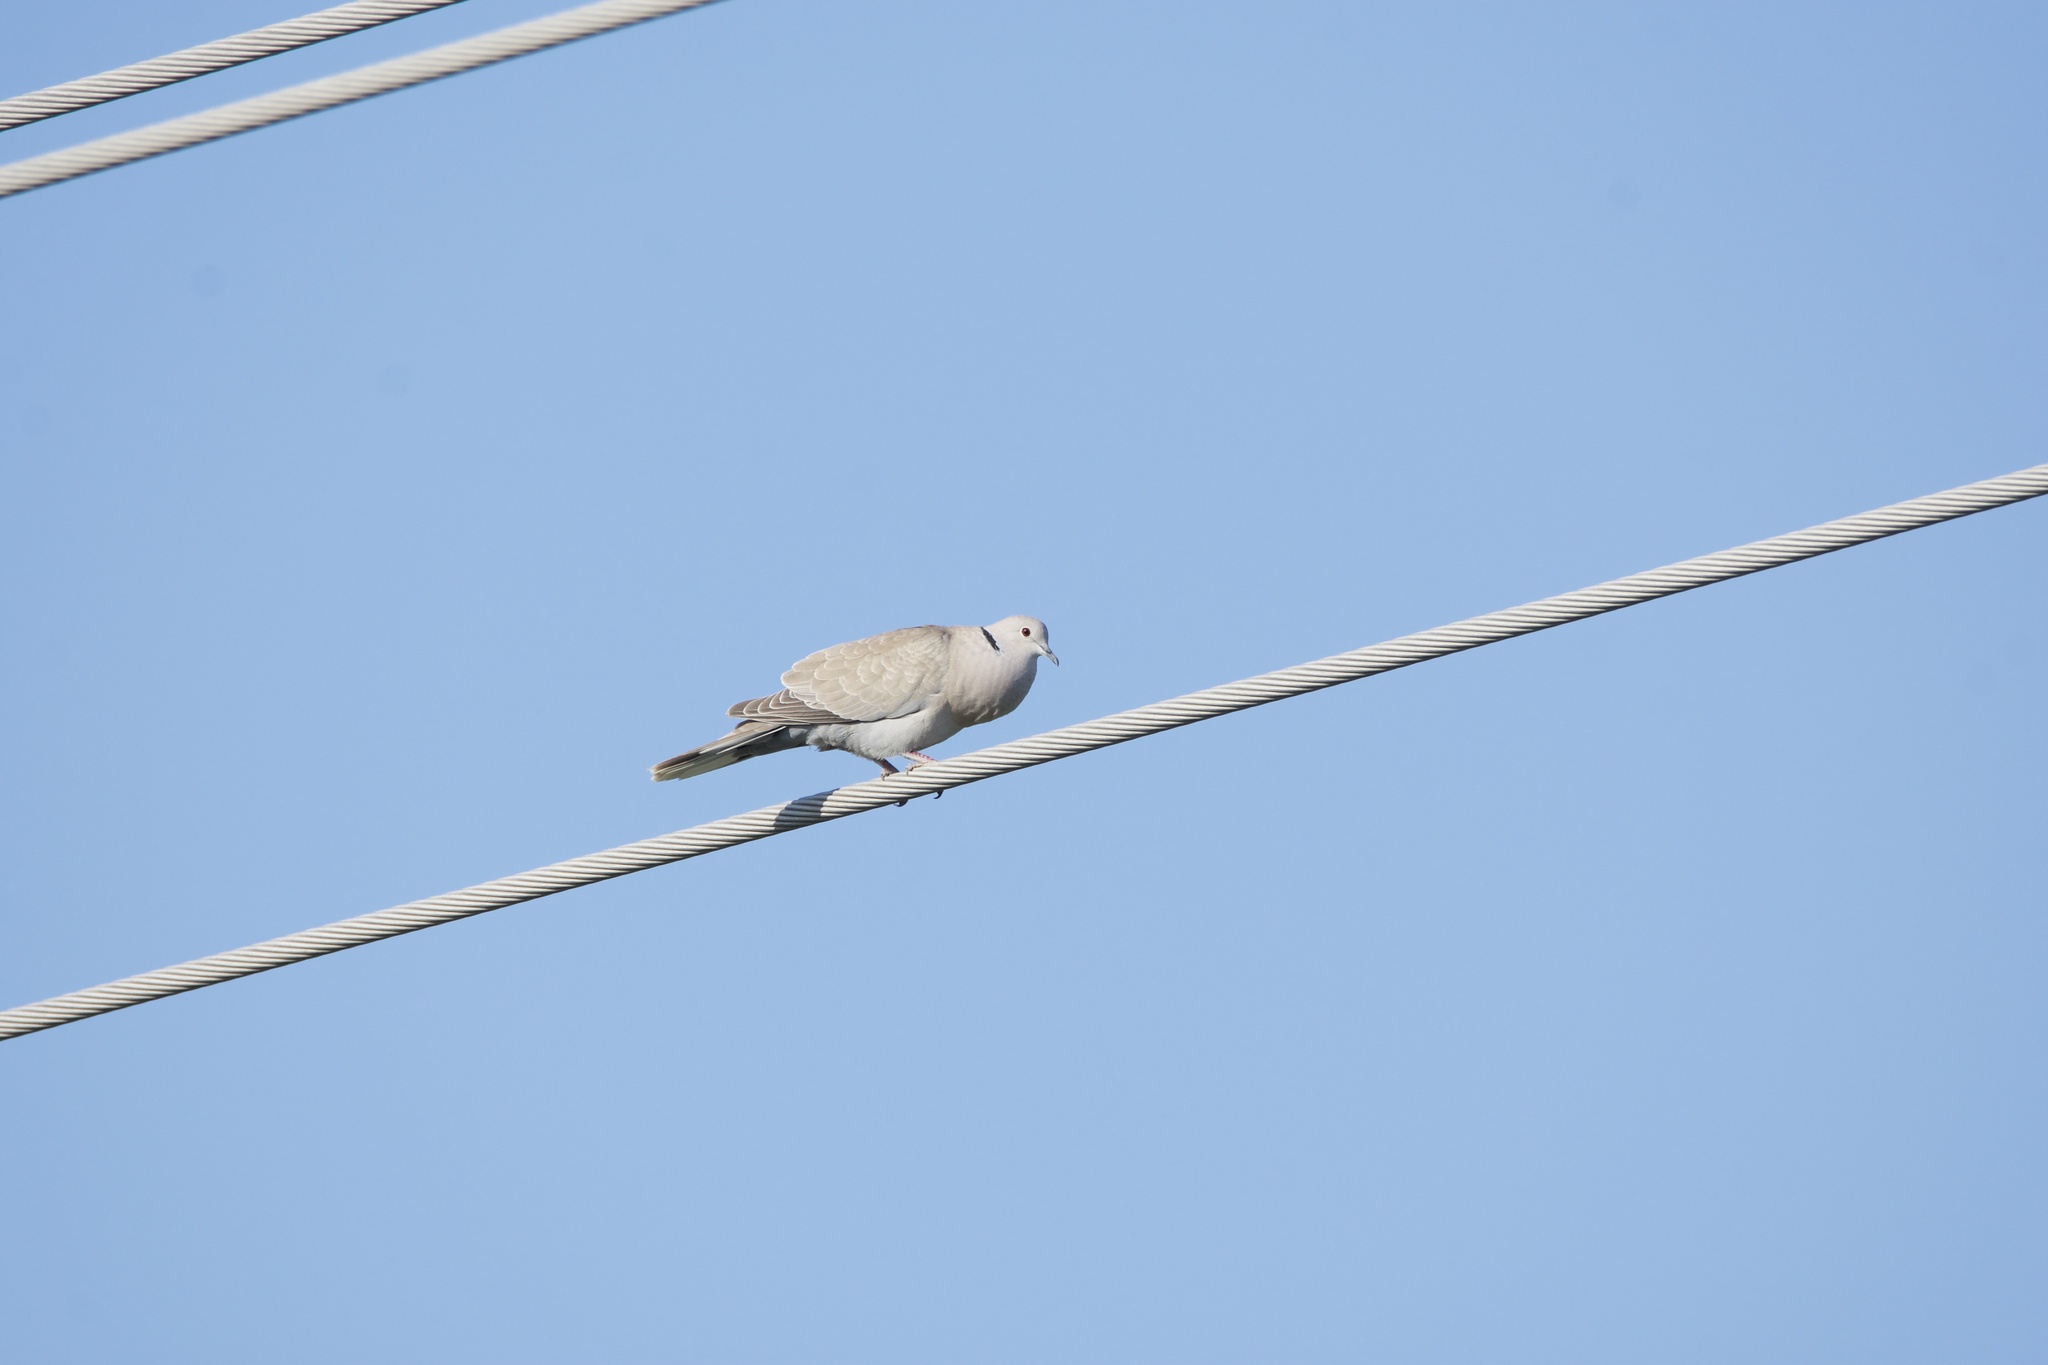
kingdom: Animalia
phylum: Chordata
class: Aves
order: Columbiformes
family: Columbidae
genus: Streptopelia
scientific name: Streptopelia decaocto
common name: Eurasian collared dove
